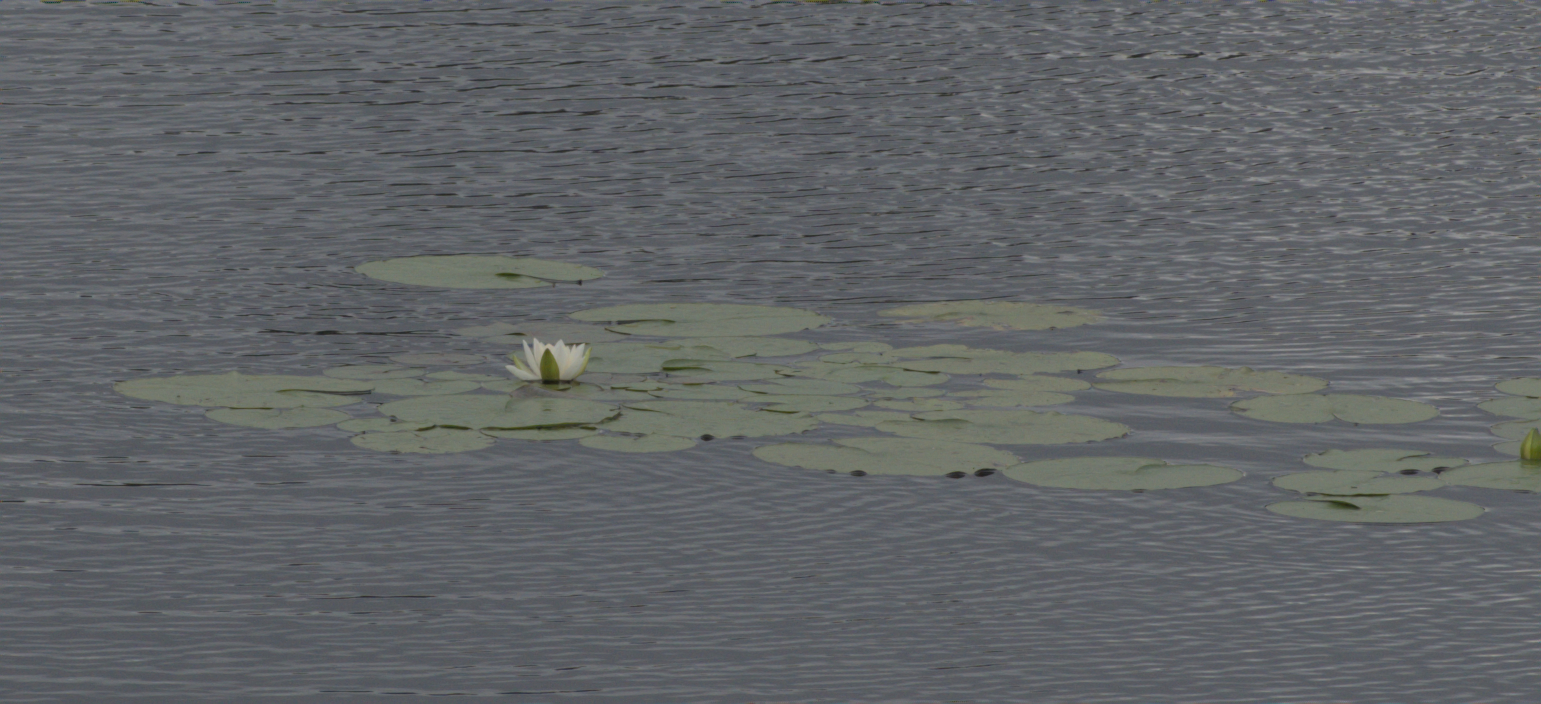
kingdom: Plantae
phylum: Tracheophyta
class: Magnoliopsida
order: Nymphaeales
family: Nymphaeaceae
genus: Nymphaea
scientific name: Nymphaea odorata
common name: Fragrant water-lily
